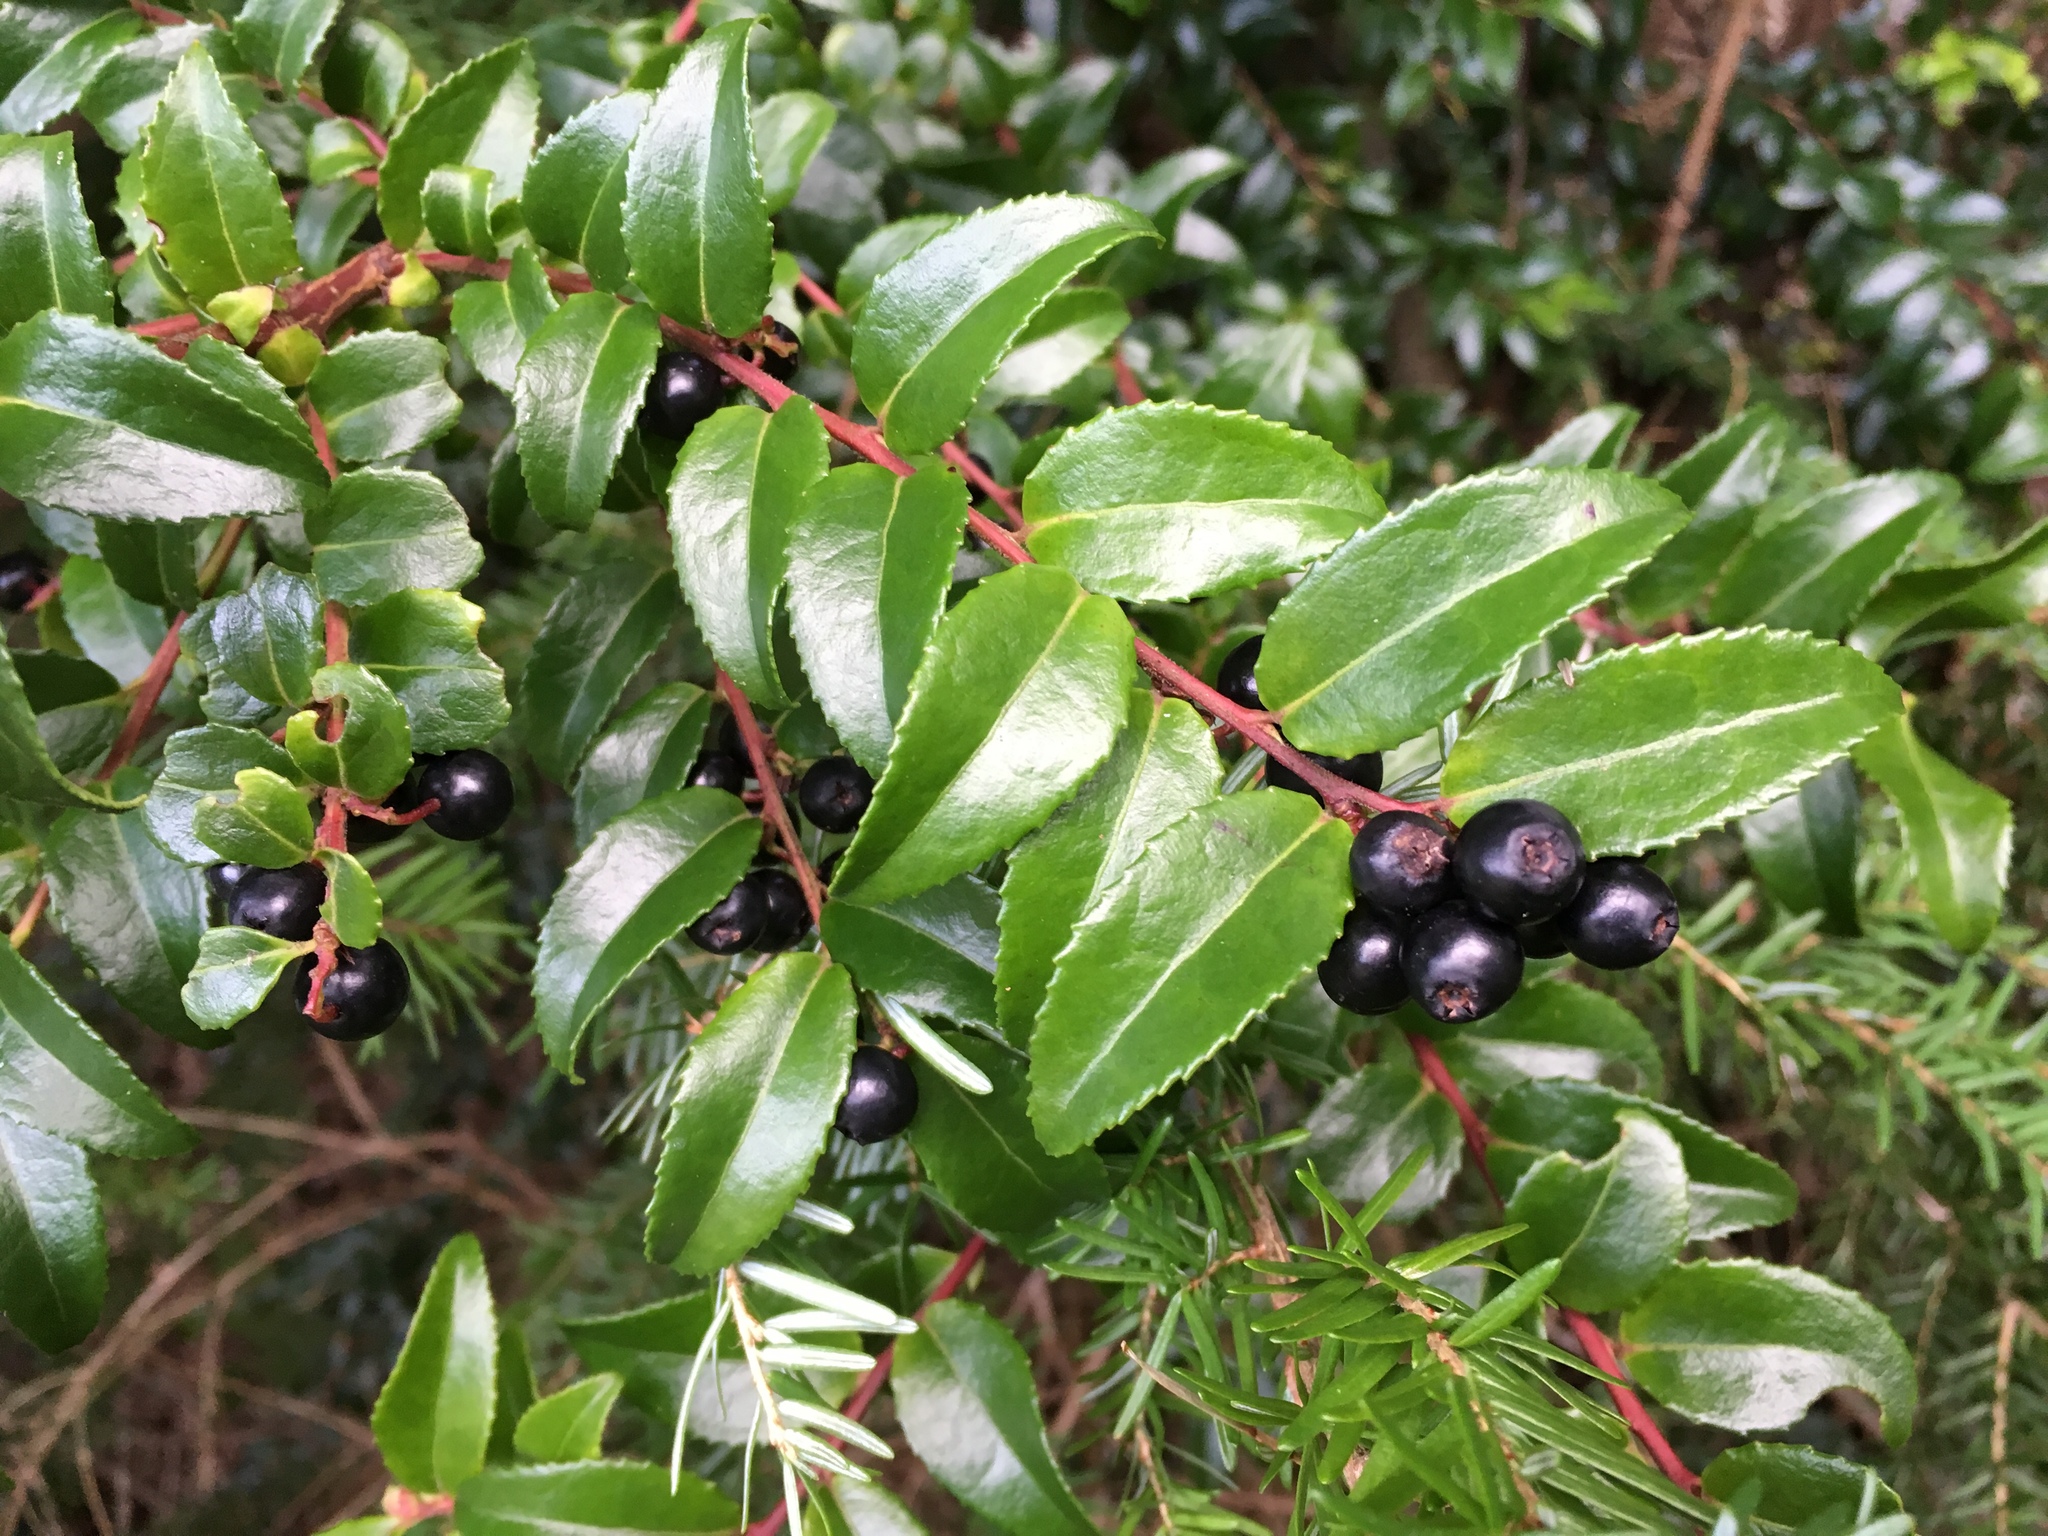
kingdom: Plantae
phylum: Tracheophyta
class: Magnoliopsida
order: Ericales
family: Ericaceae
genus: Vaccinium
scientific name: Vaccinium ovatum
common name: California-huckleberry
